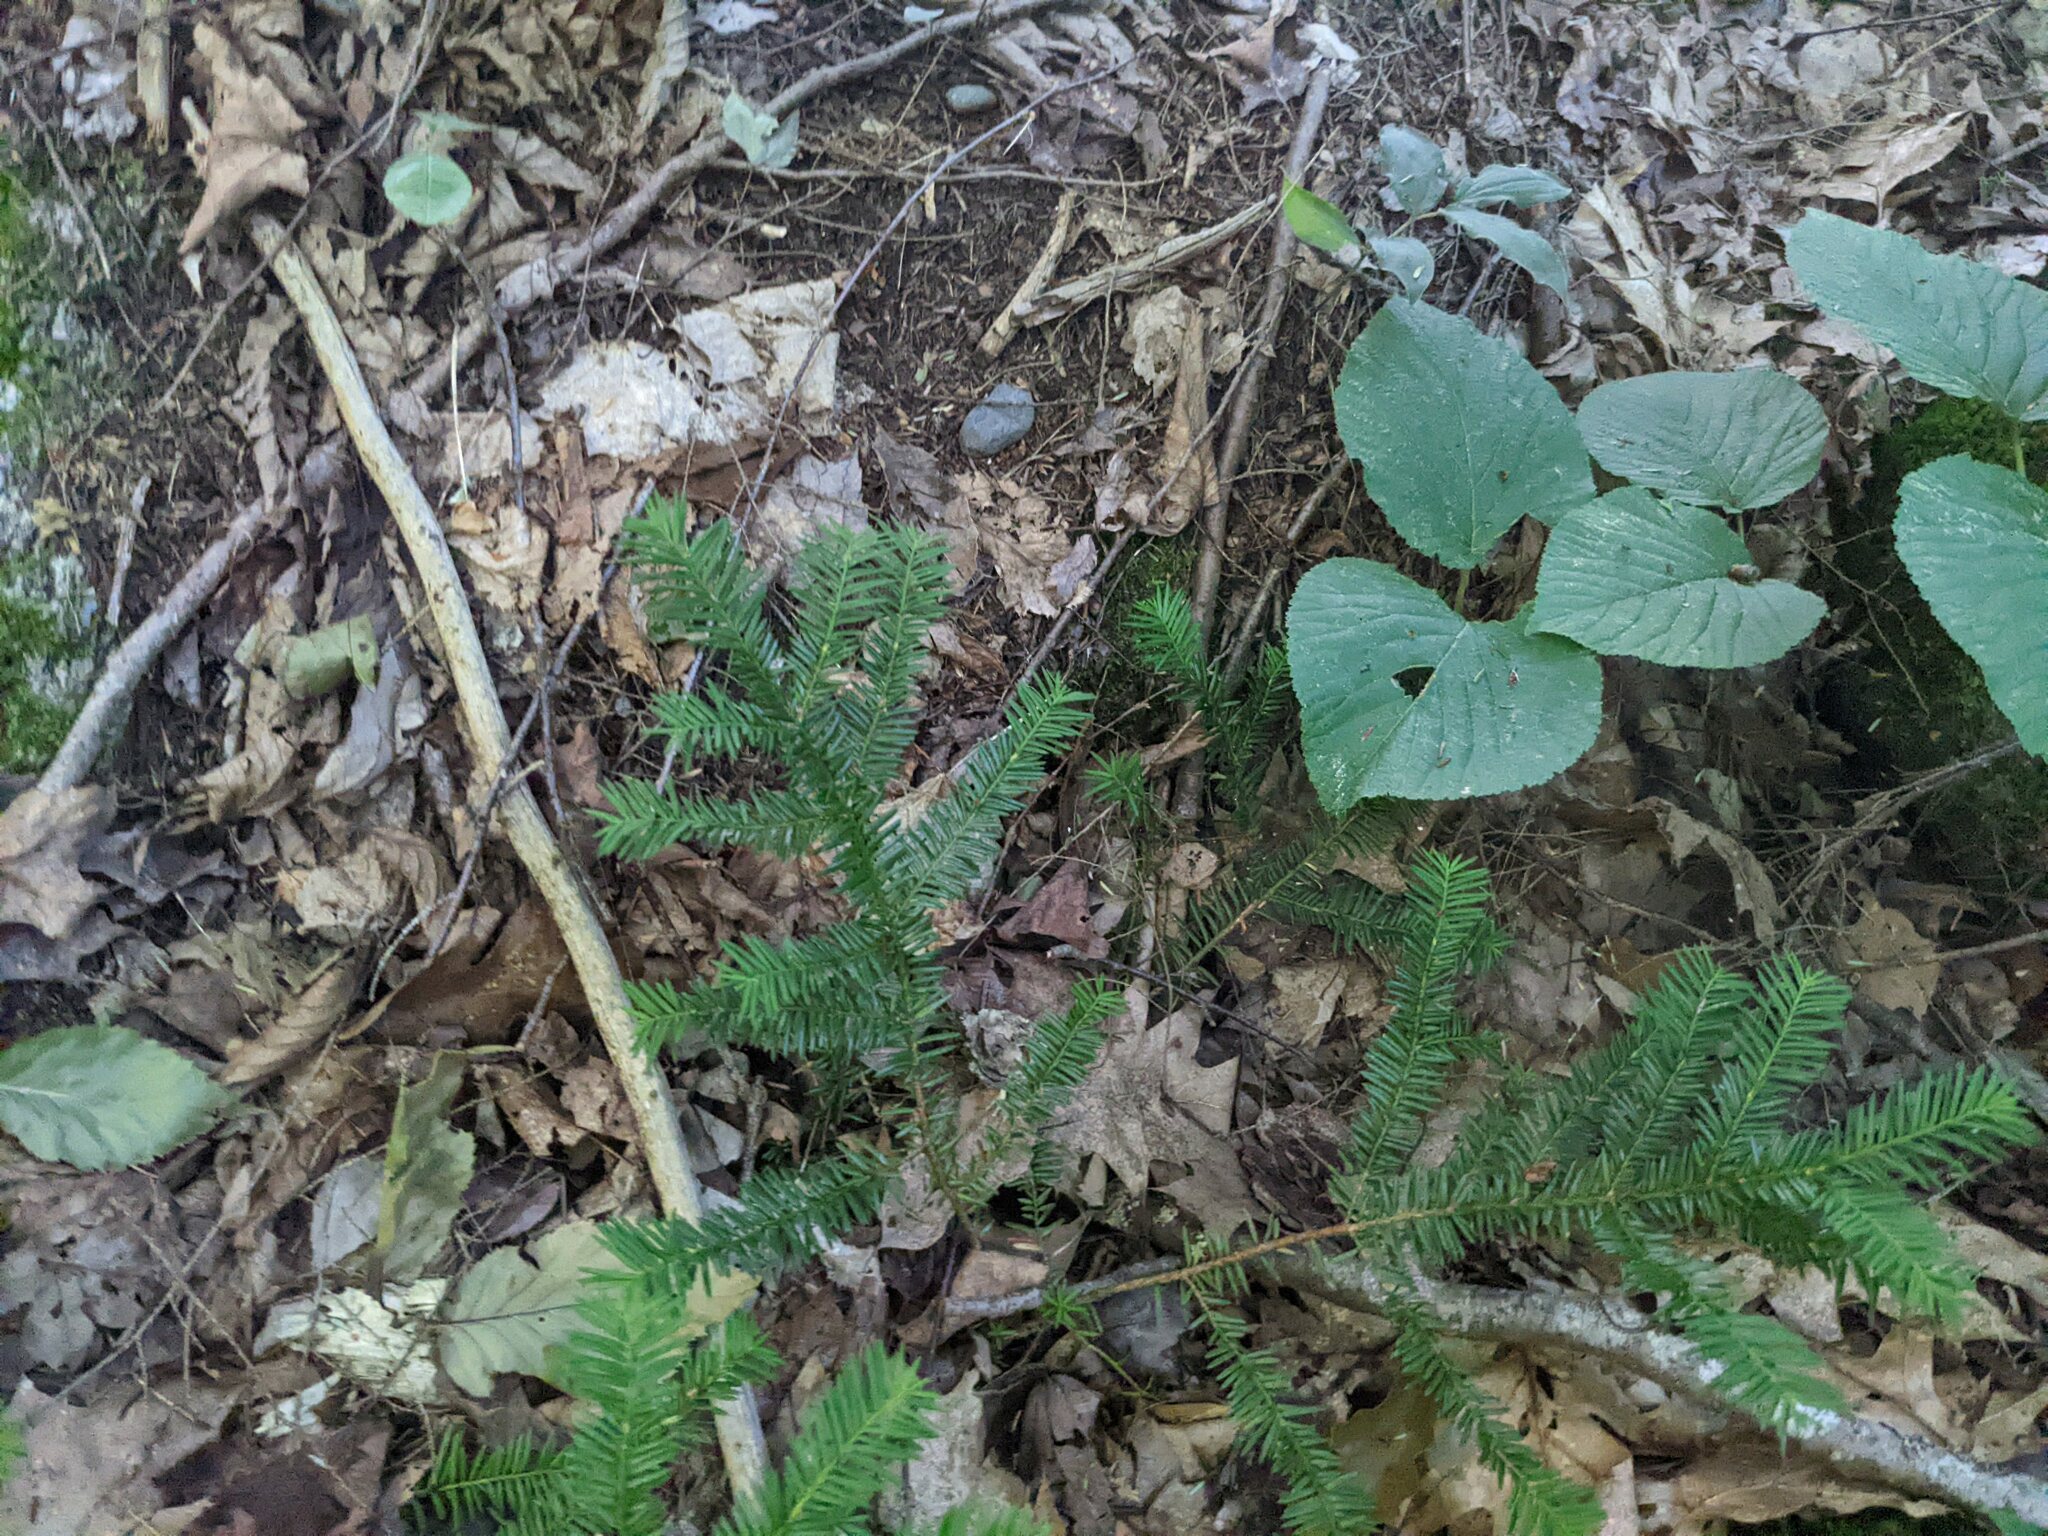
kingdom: Plantae
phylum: Tracheophyta
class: Magnoliopsida
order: Dipsacales
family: Viburnaceae
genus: Viburnum
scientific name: Viburnum lantanoides
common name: Hobblebush
